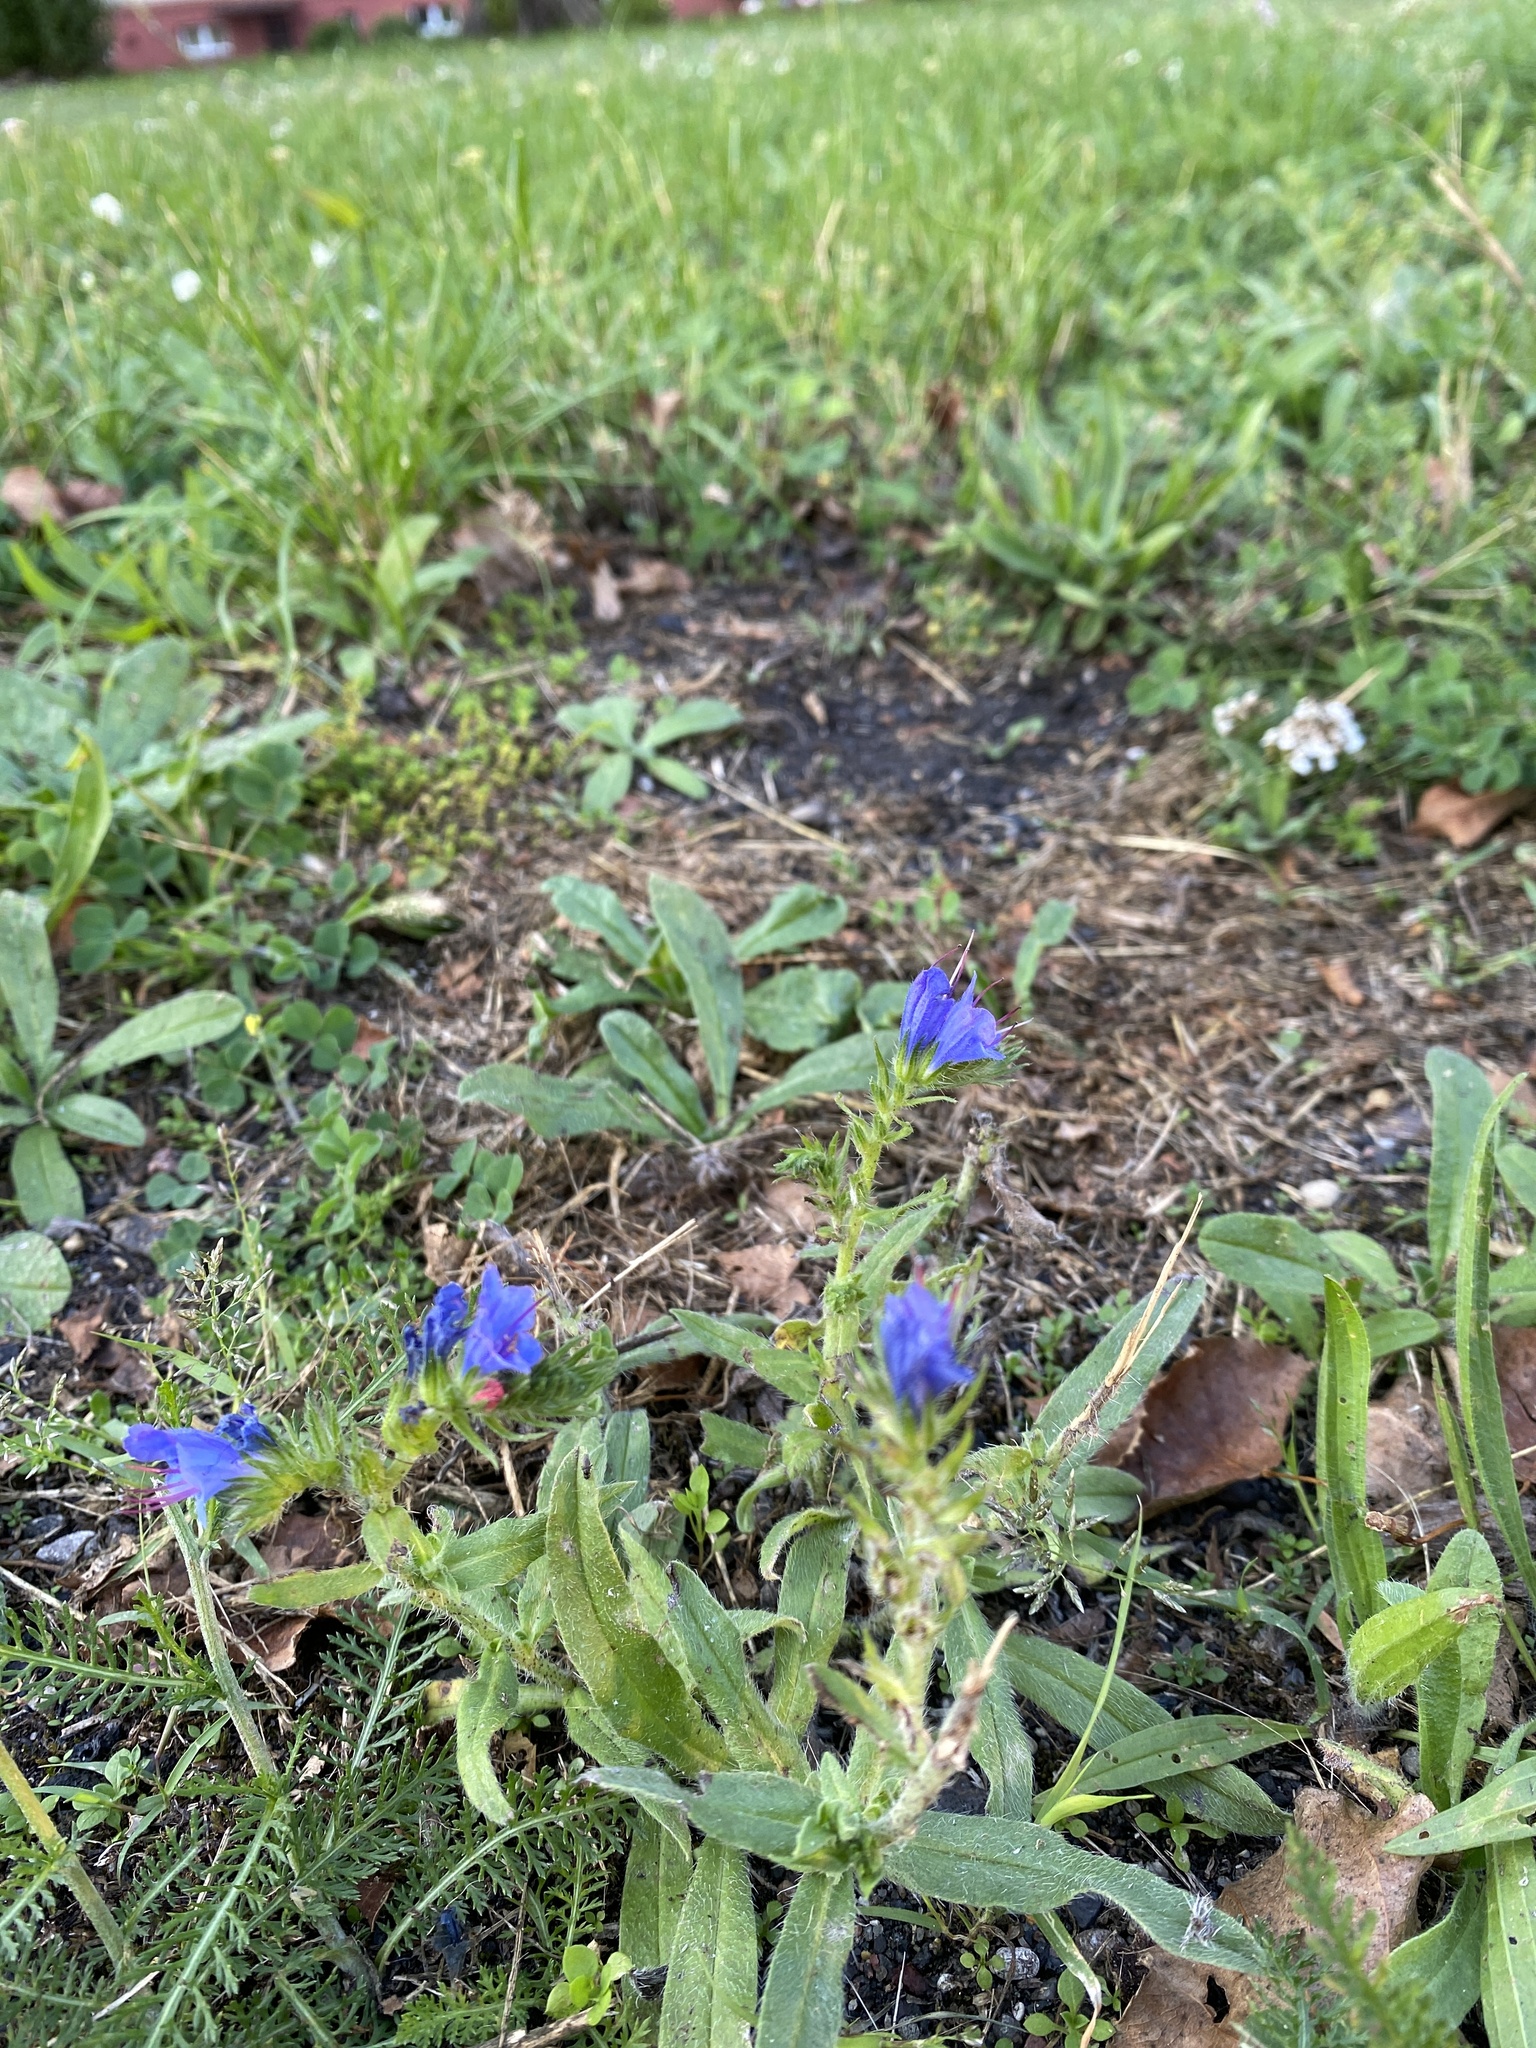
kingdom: Plantae
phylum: Tracheophyta
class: Magnoliopsida
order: Boraginales
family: Boraginaceae
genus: Echium
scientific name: Echium vulgare
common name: Common viper's bugloss
